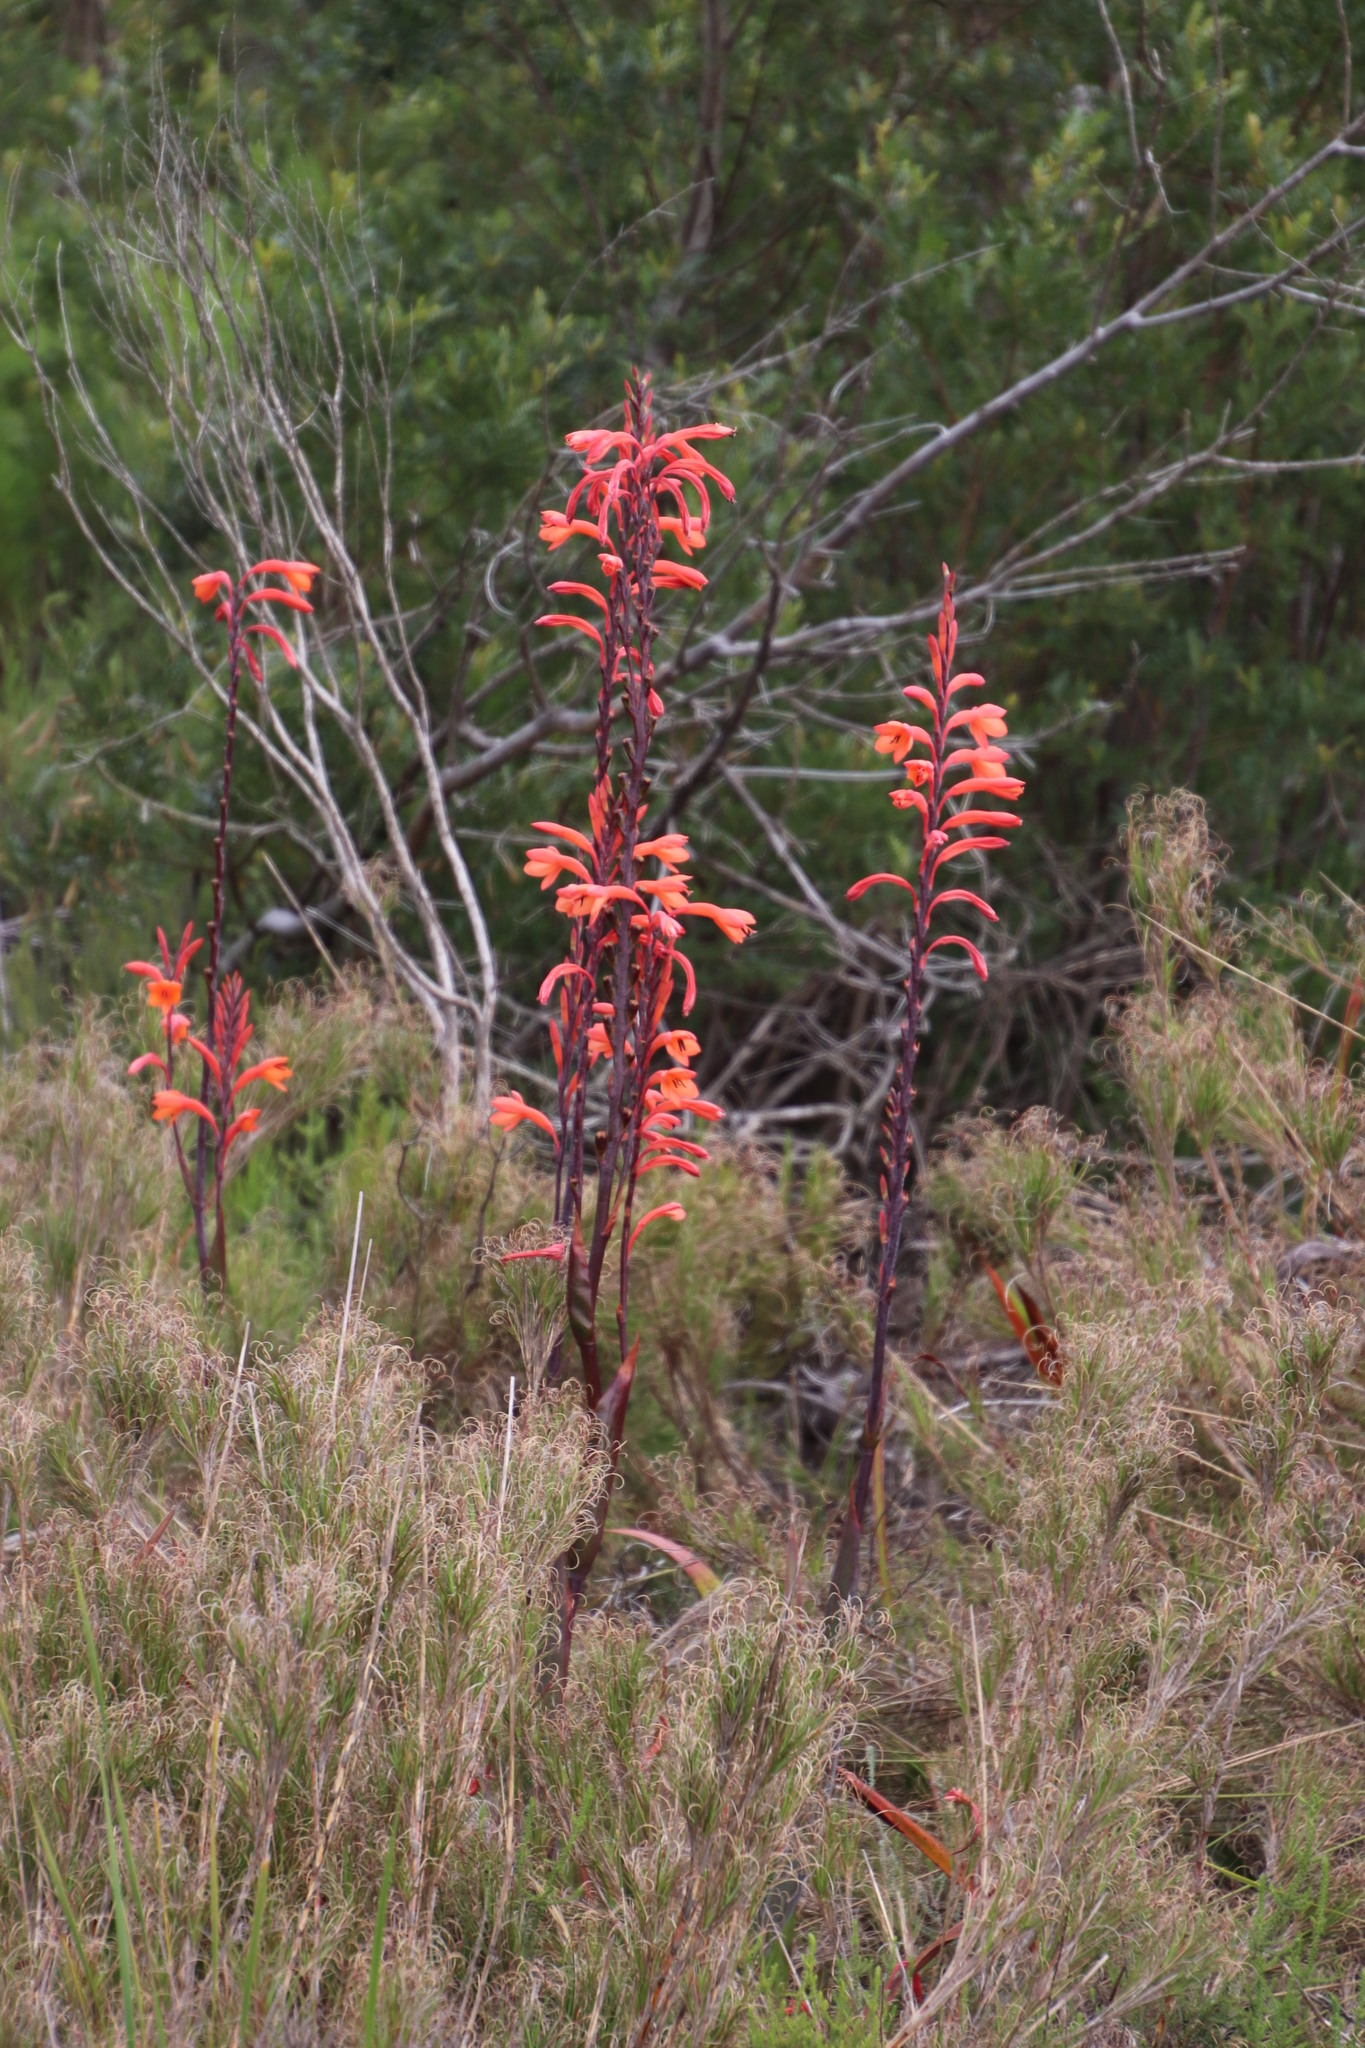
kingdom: Animalia
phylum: Chordata
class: Aves
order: Passeriformes
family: Promeropidae
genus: Promerops
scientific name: Promerops cafer
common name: Cape sugarbird
